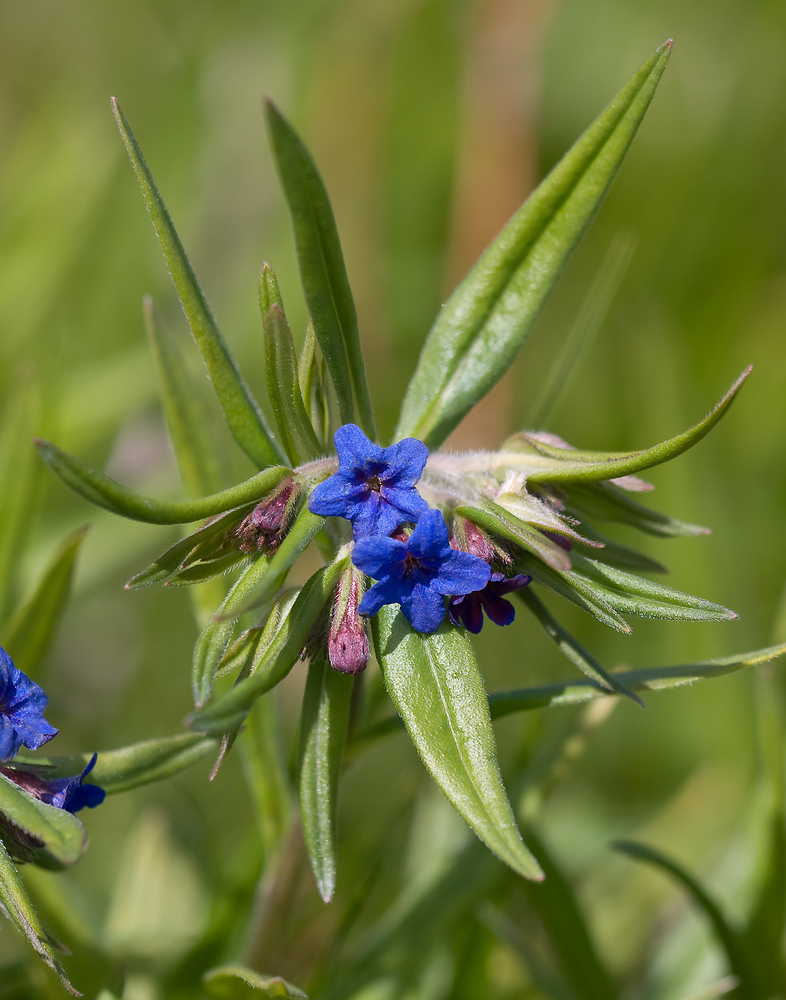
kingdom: Plantae
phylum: Tracheophyta
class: Magnoliopsida
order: Boraginales
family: Boraginaceae
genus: Aegonychon
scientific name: Aegonychon purpurocaeruleum
